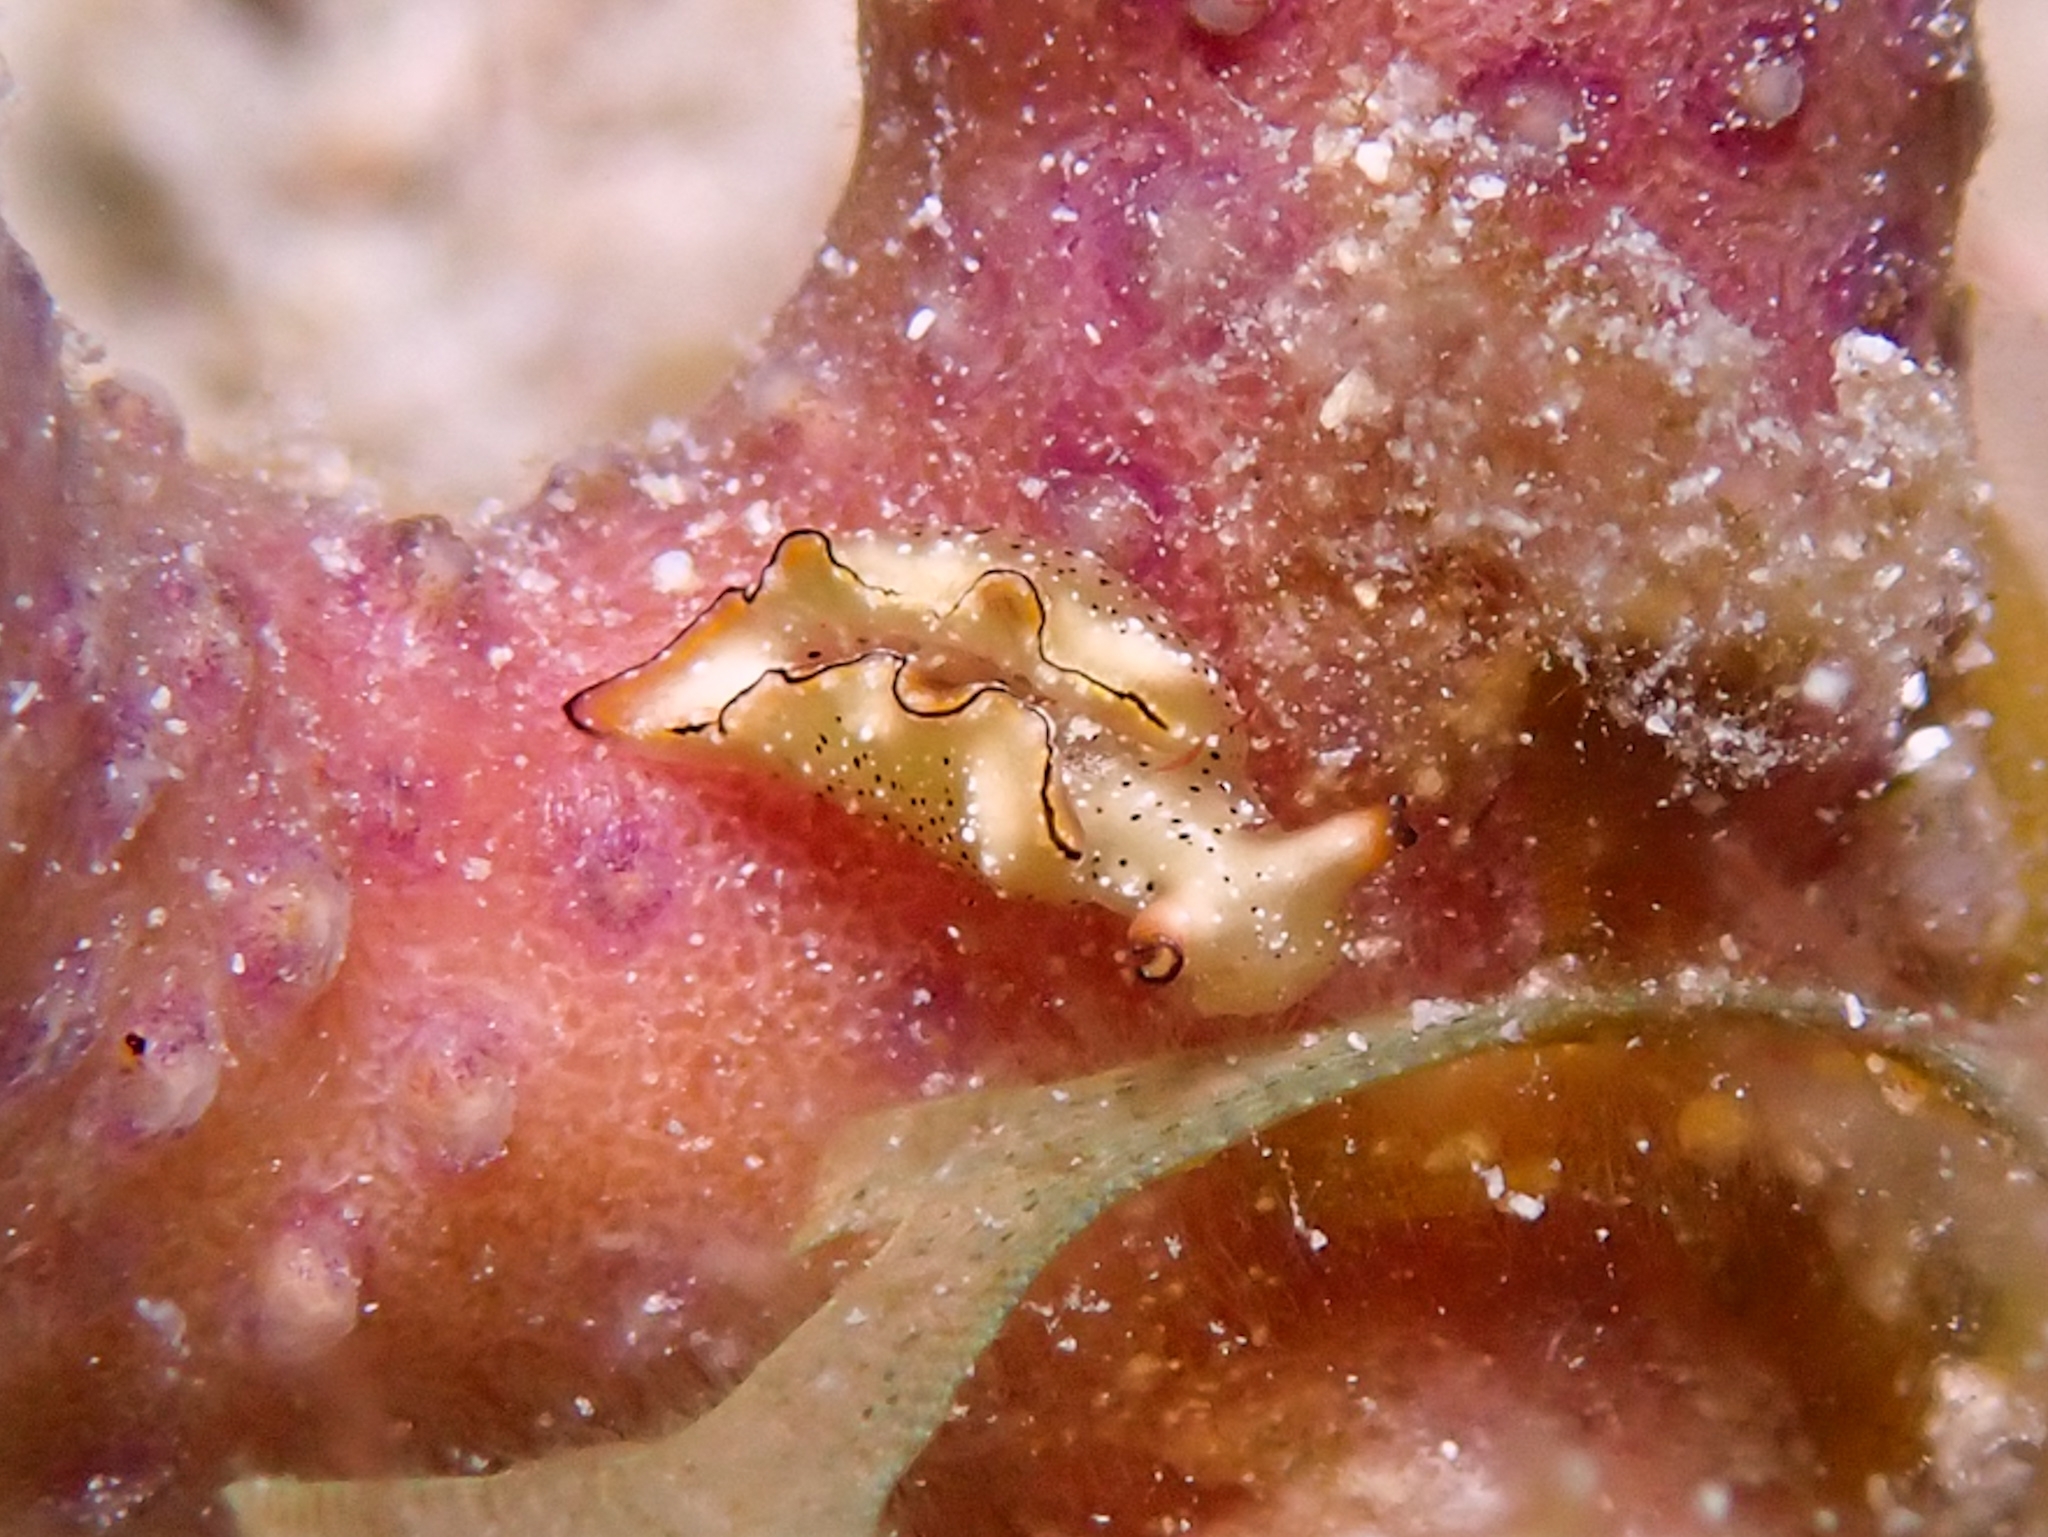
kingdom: Animalia
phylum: Mollusca
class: Gastropoda
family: Plakobranchidae
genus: Elysia
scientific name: Elysia ornata
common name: Ornate elysia
